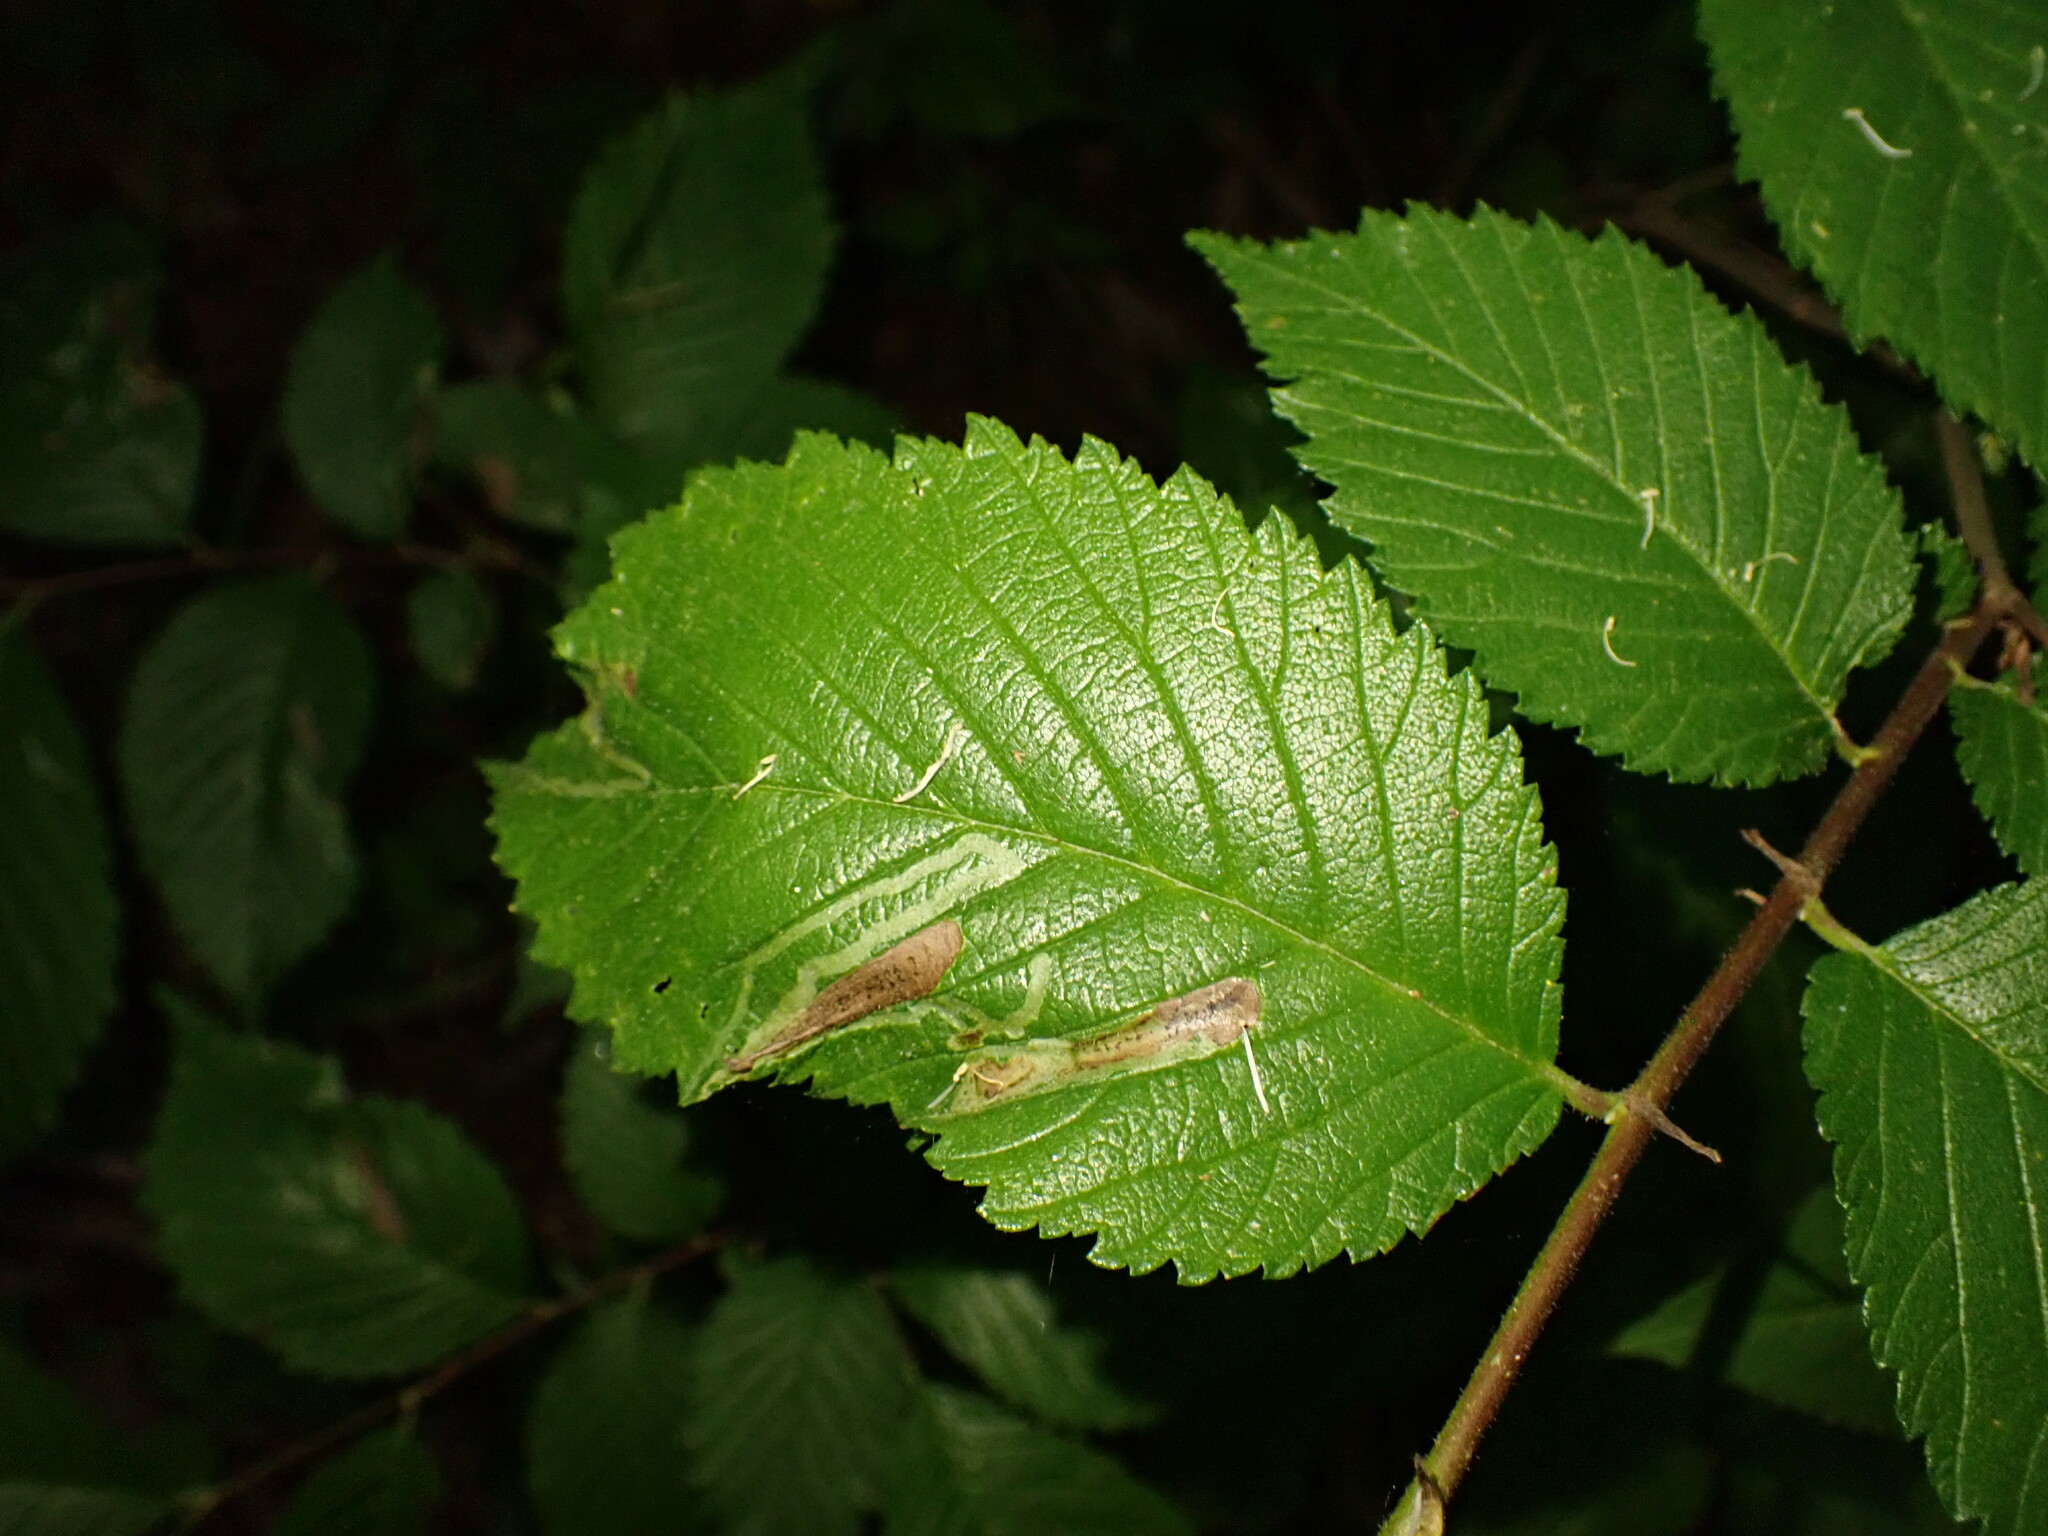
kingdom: Animalia
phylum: Arthropoda
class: Insecta
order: Diptera
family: Agromyzidae
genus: Agromyza
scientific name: Agromyza aristata
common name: Elm agromyzid leafminer
